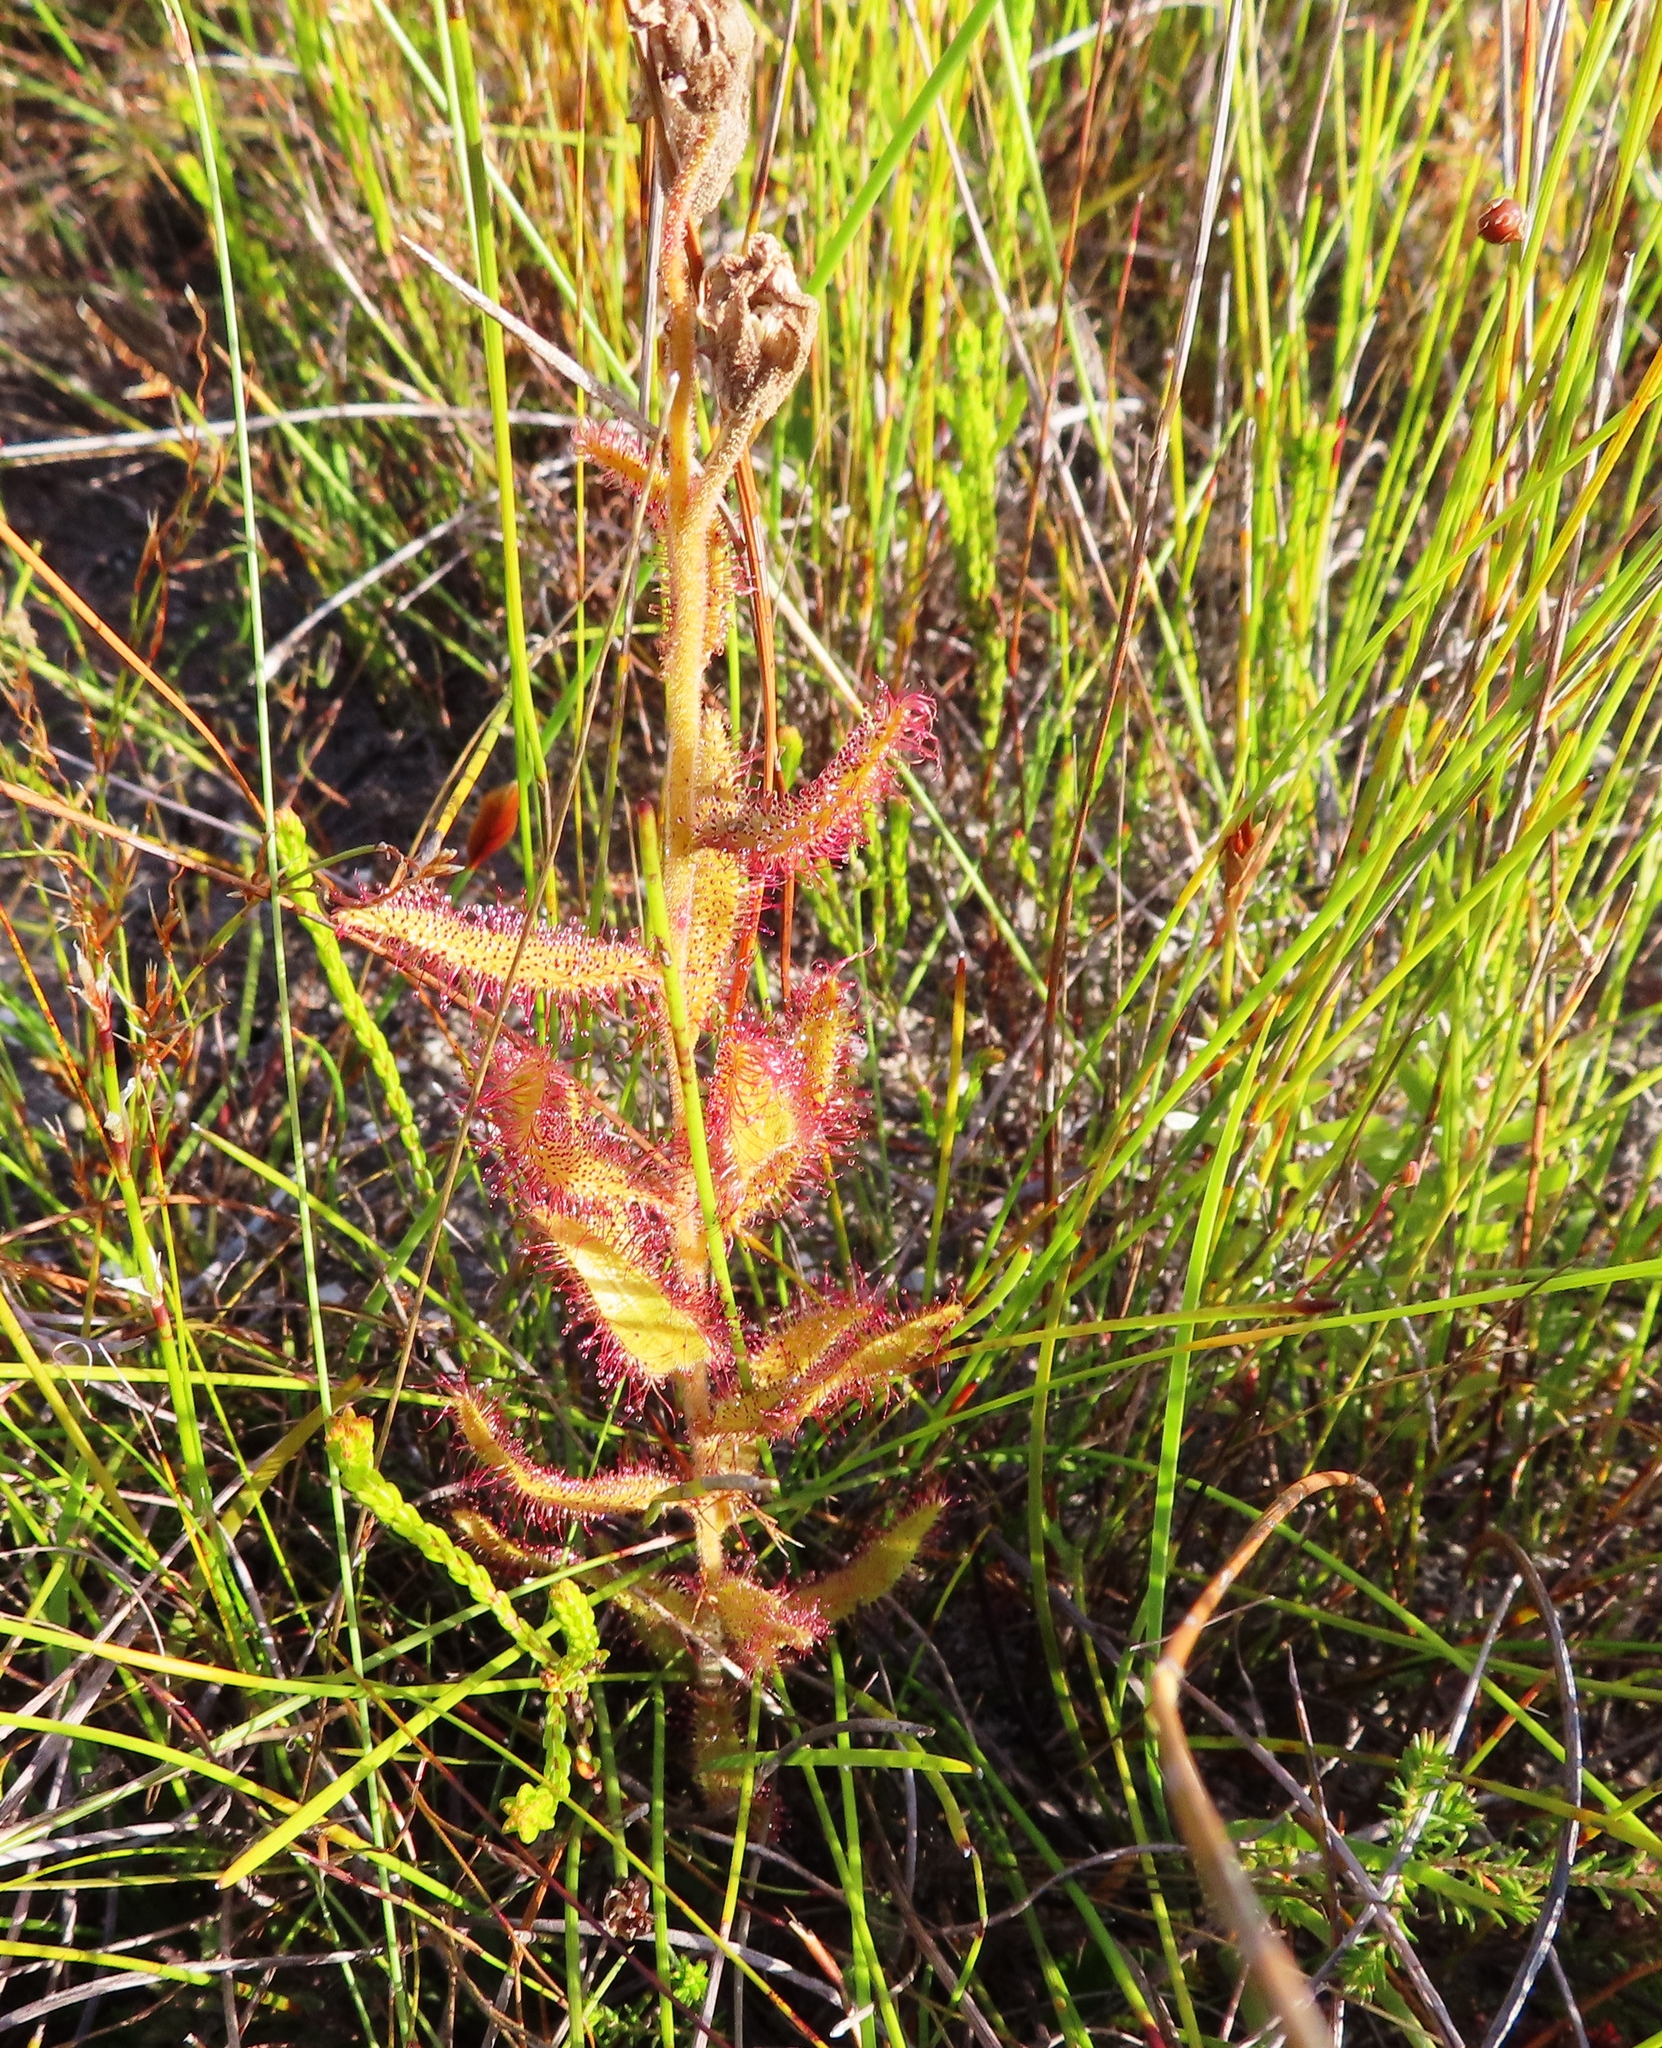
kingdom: Plantae
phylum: Tracheophyta
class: Magnoliopsida
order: Caryophyllales
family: Droseraceae
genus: Drosera
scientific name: Drosera cistiflora
